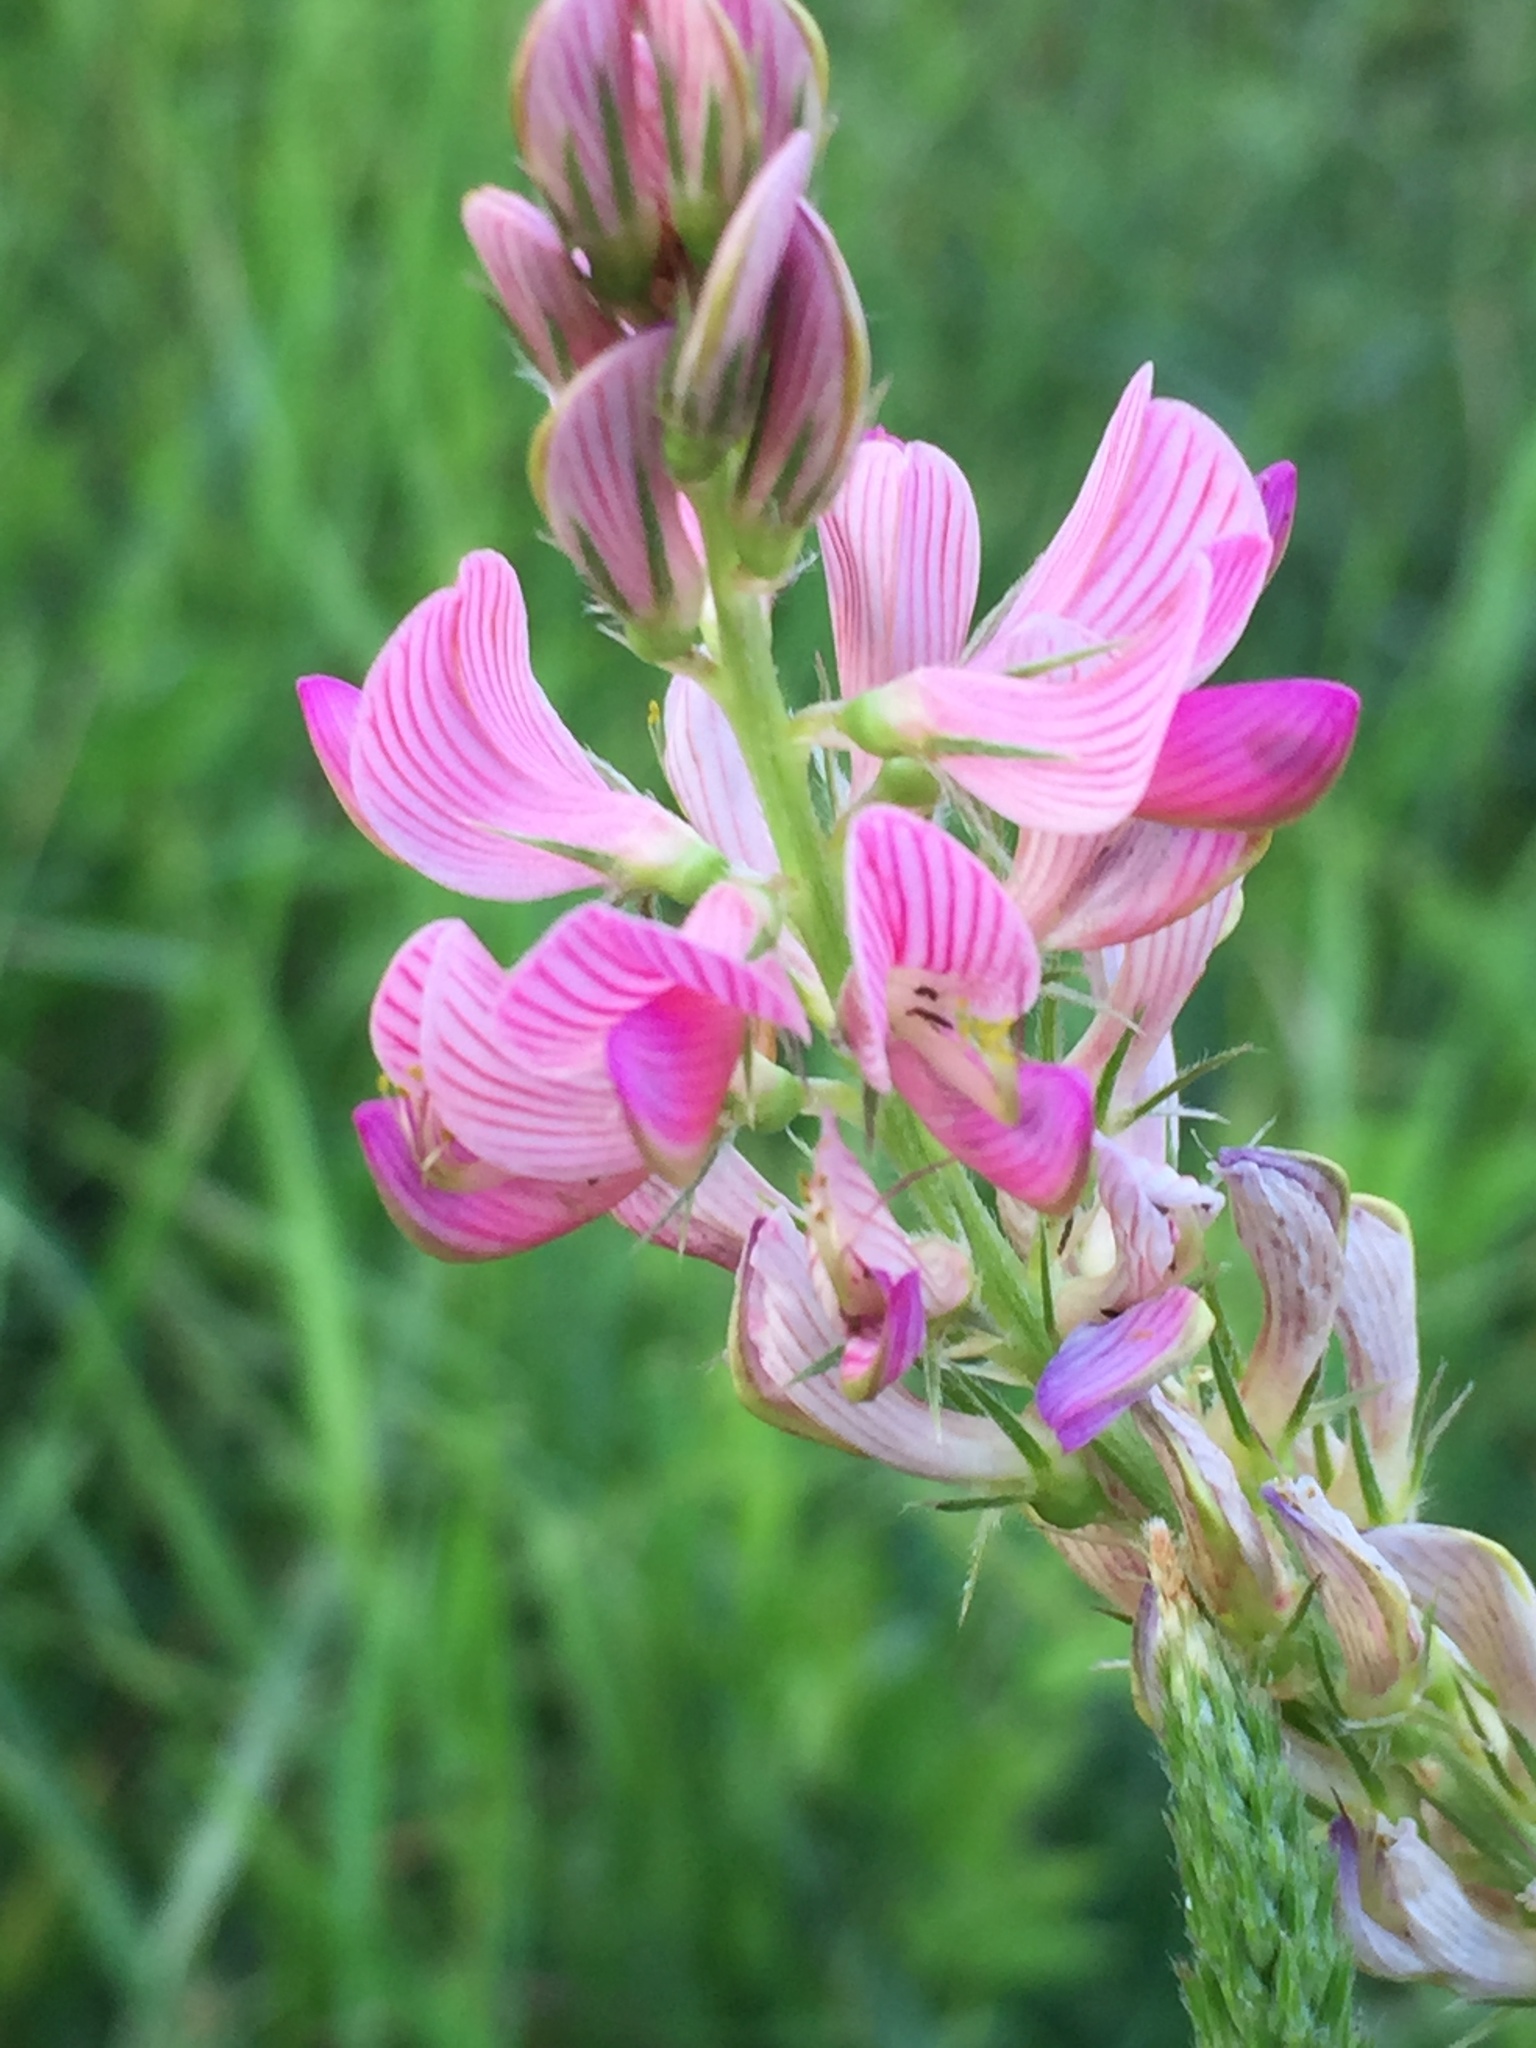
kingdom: Plantae
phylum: Tracheophyta
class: Magnoliopsida
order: Fabales
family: Fabaceae
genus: Onobrychis
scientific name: Onobrychis arenaria
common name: Sand esparcet
